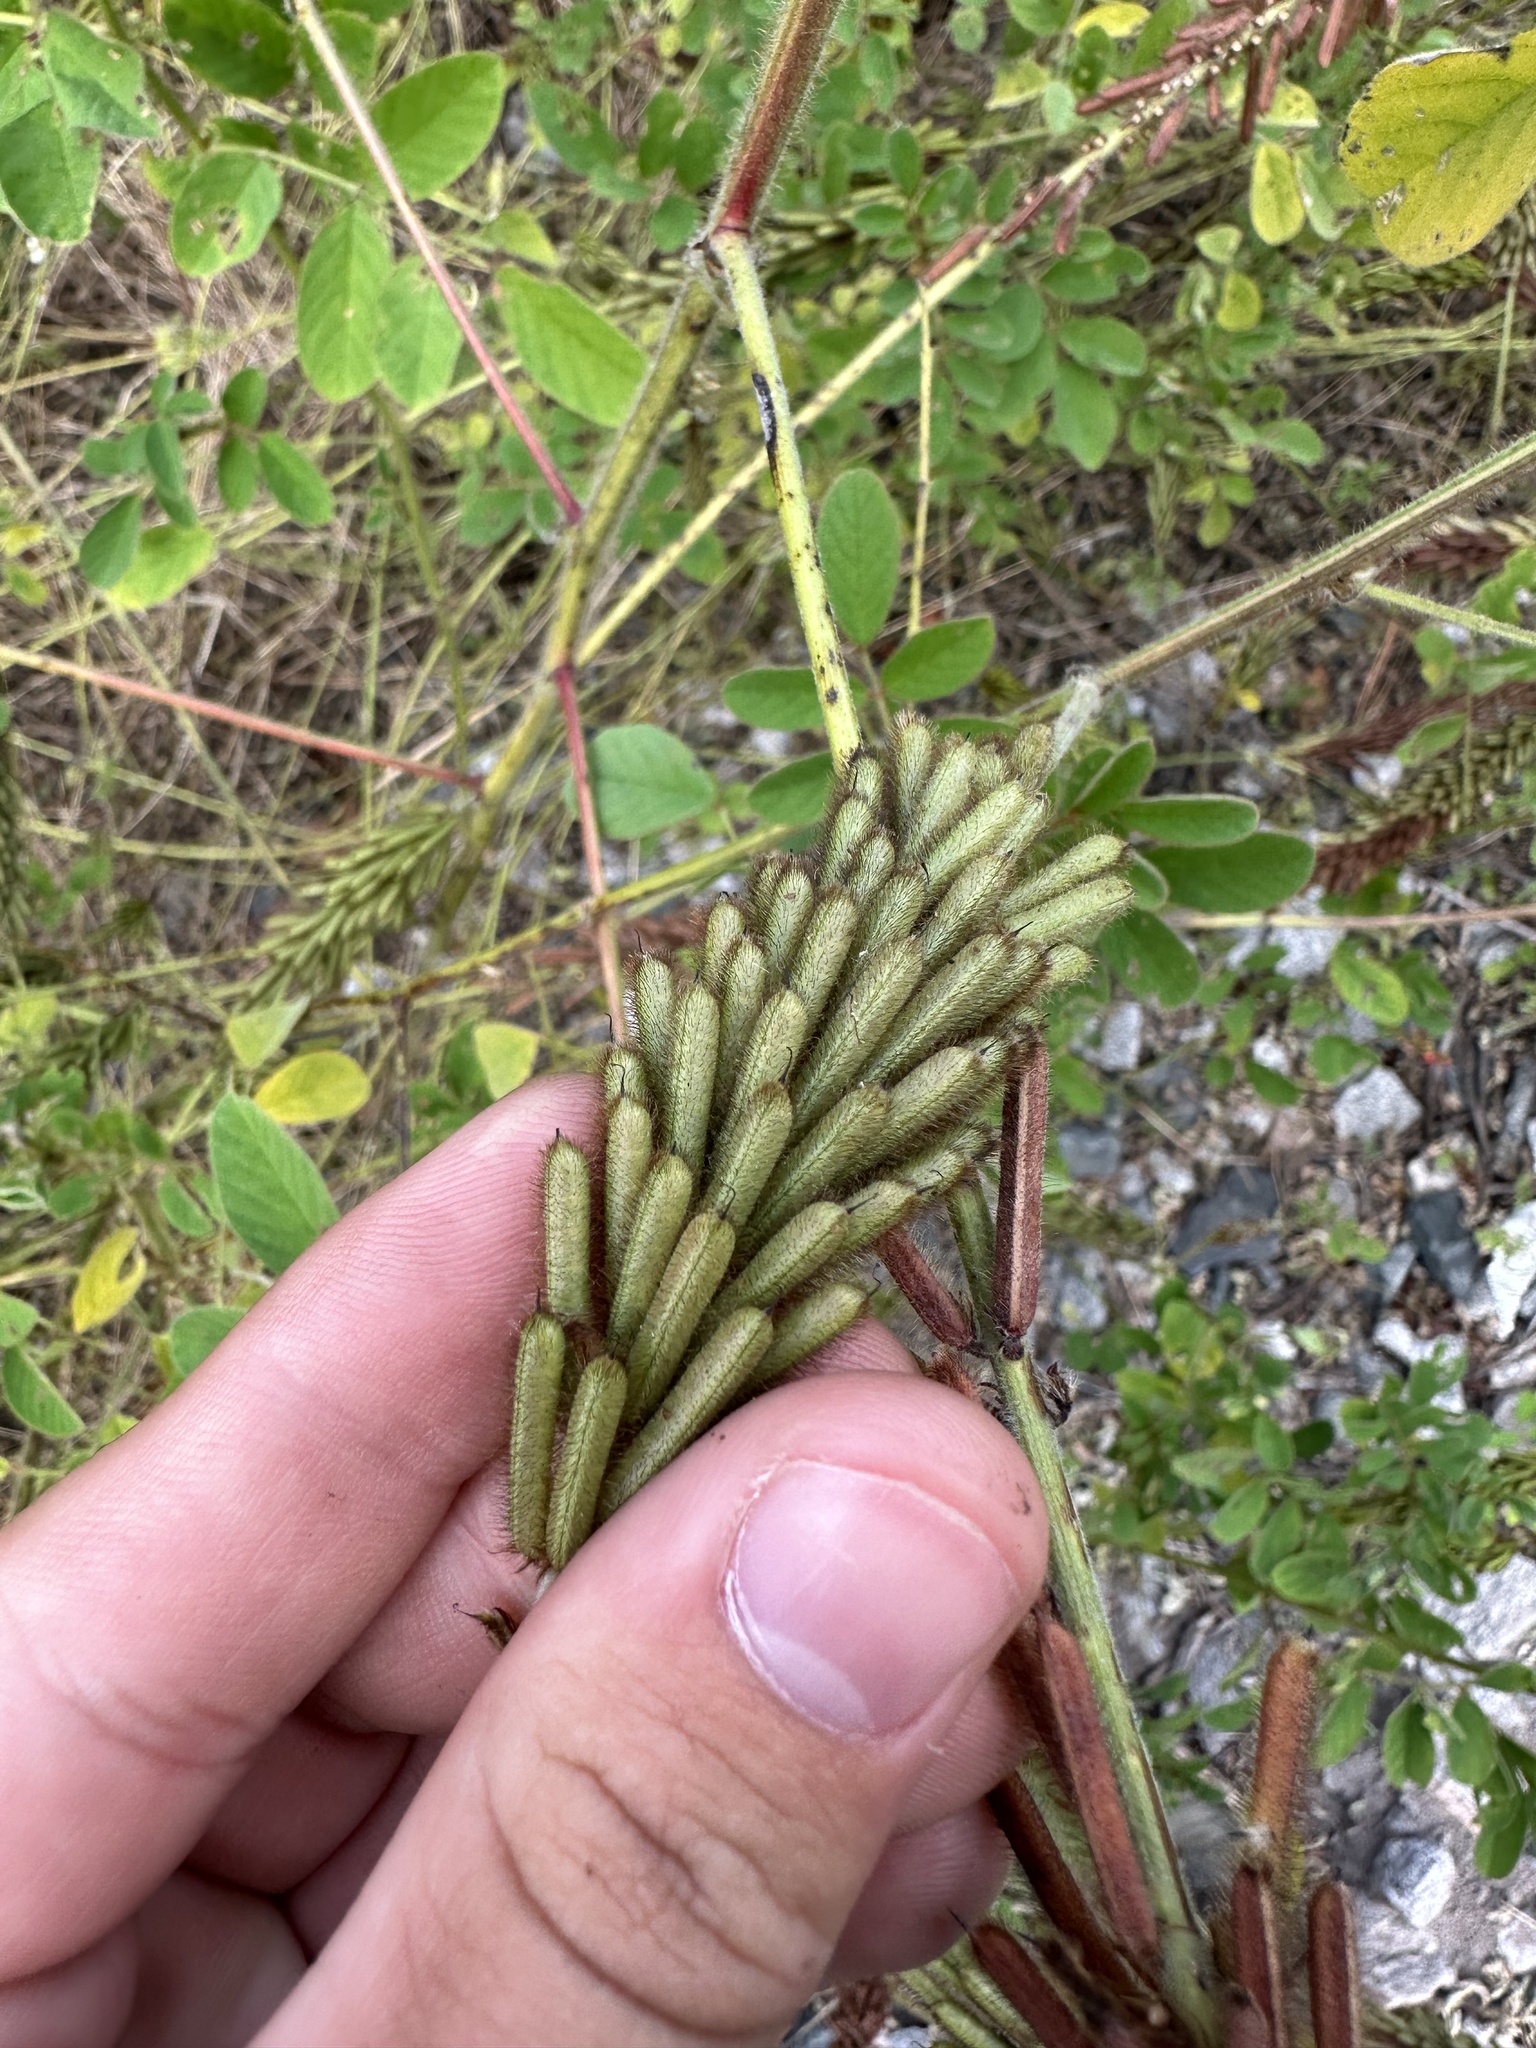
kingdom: Plantae
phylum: Tracheophyta
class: Magnoliopsida
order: Fabales
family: Fabaceae
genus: Indigofera
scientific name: Indigofera hirsuta
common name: Hairy indigo
